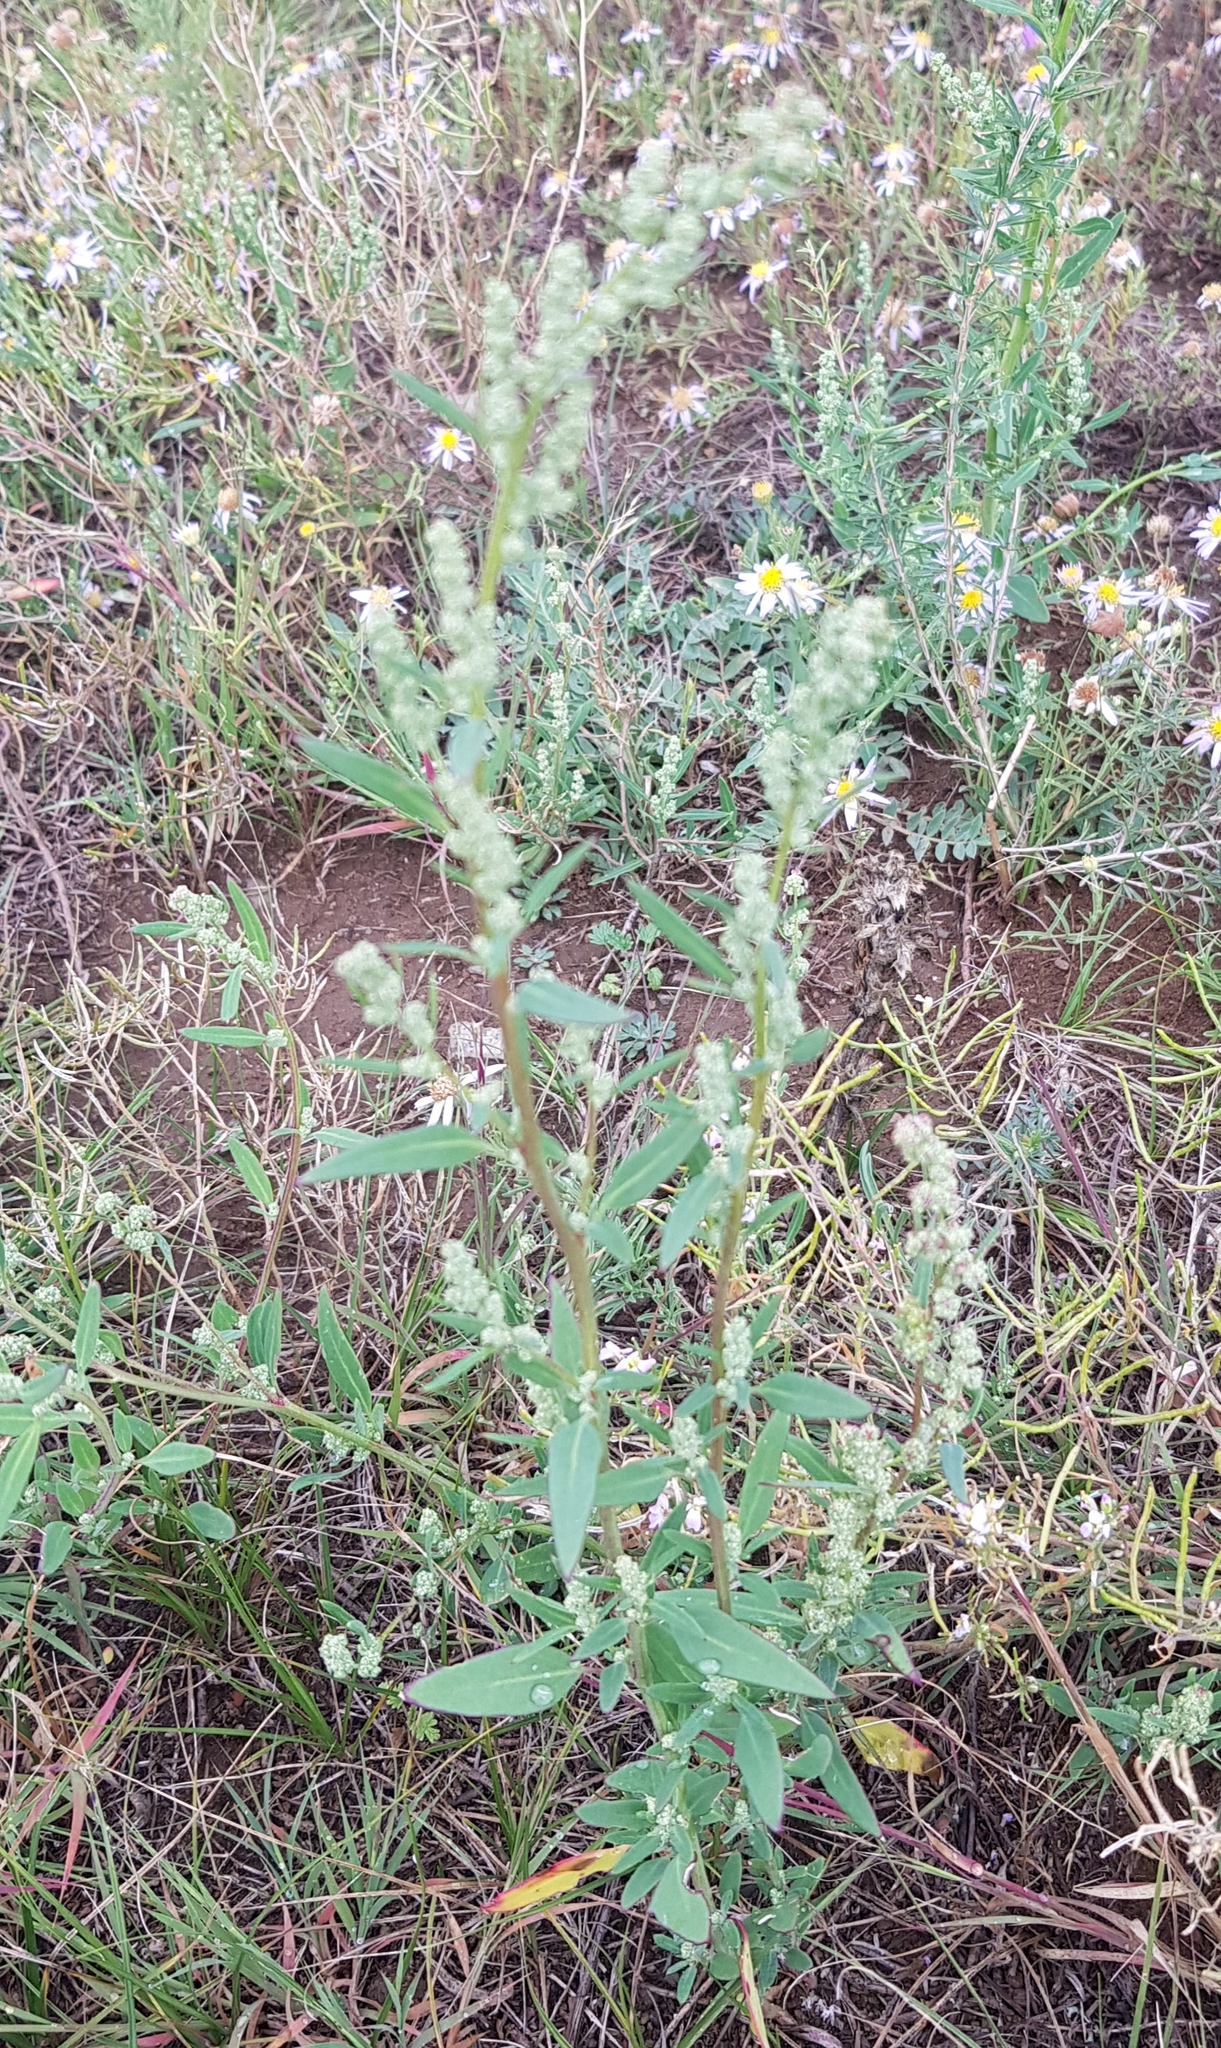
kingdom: Plantae
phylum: Tracheophyta
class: Magnoliopsida
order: Caryophyllales
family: Amaranthaceae
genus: Chenopodium
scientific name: Chenopodium acuminatum
